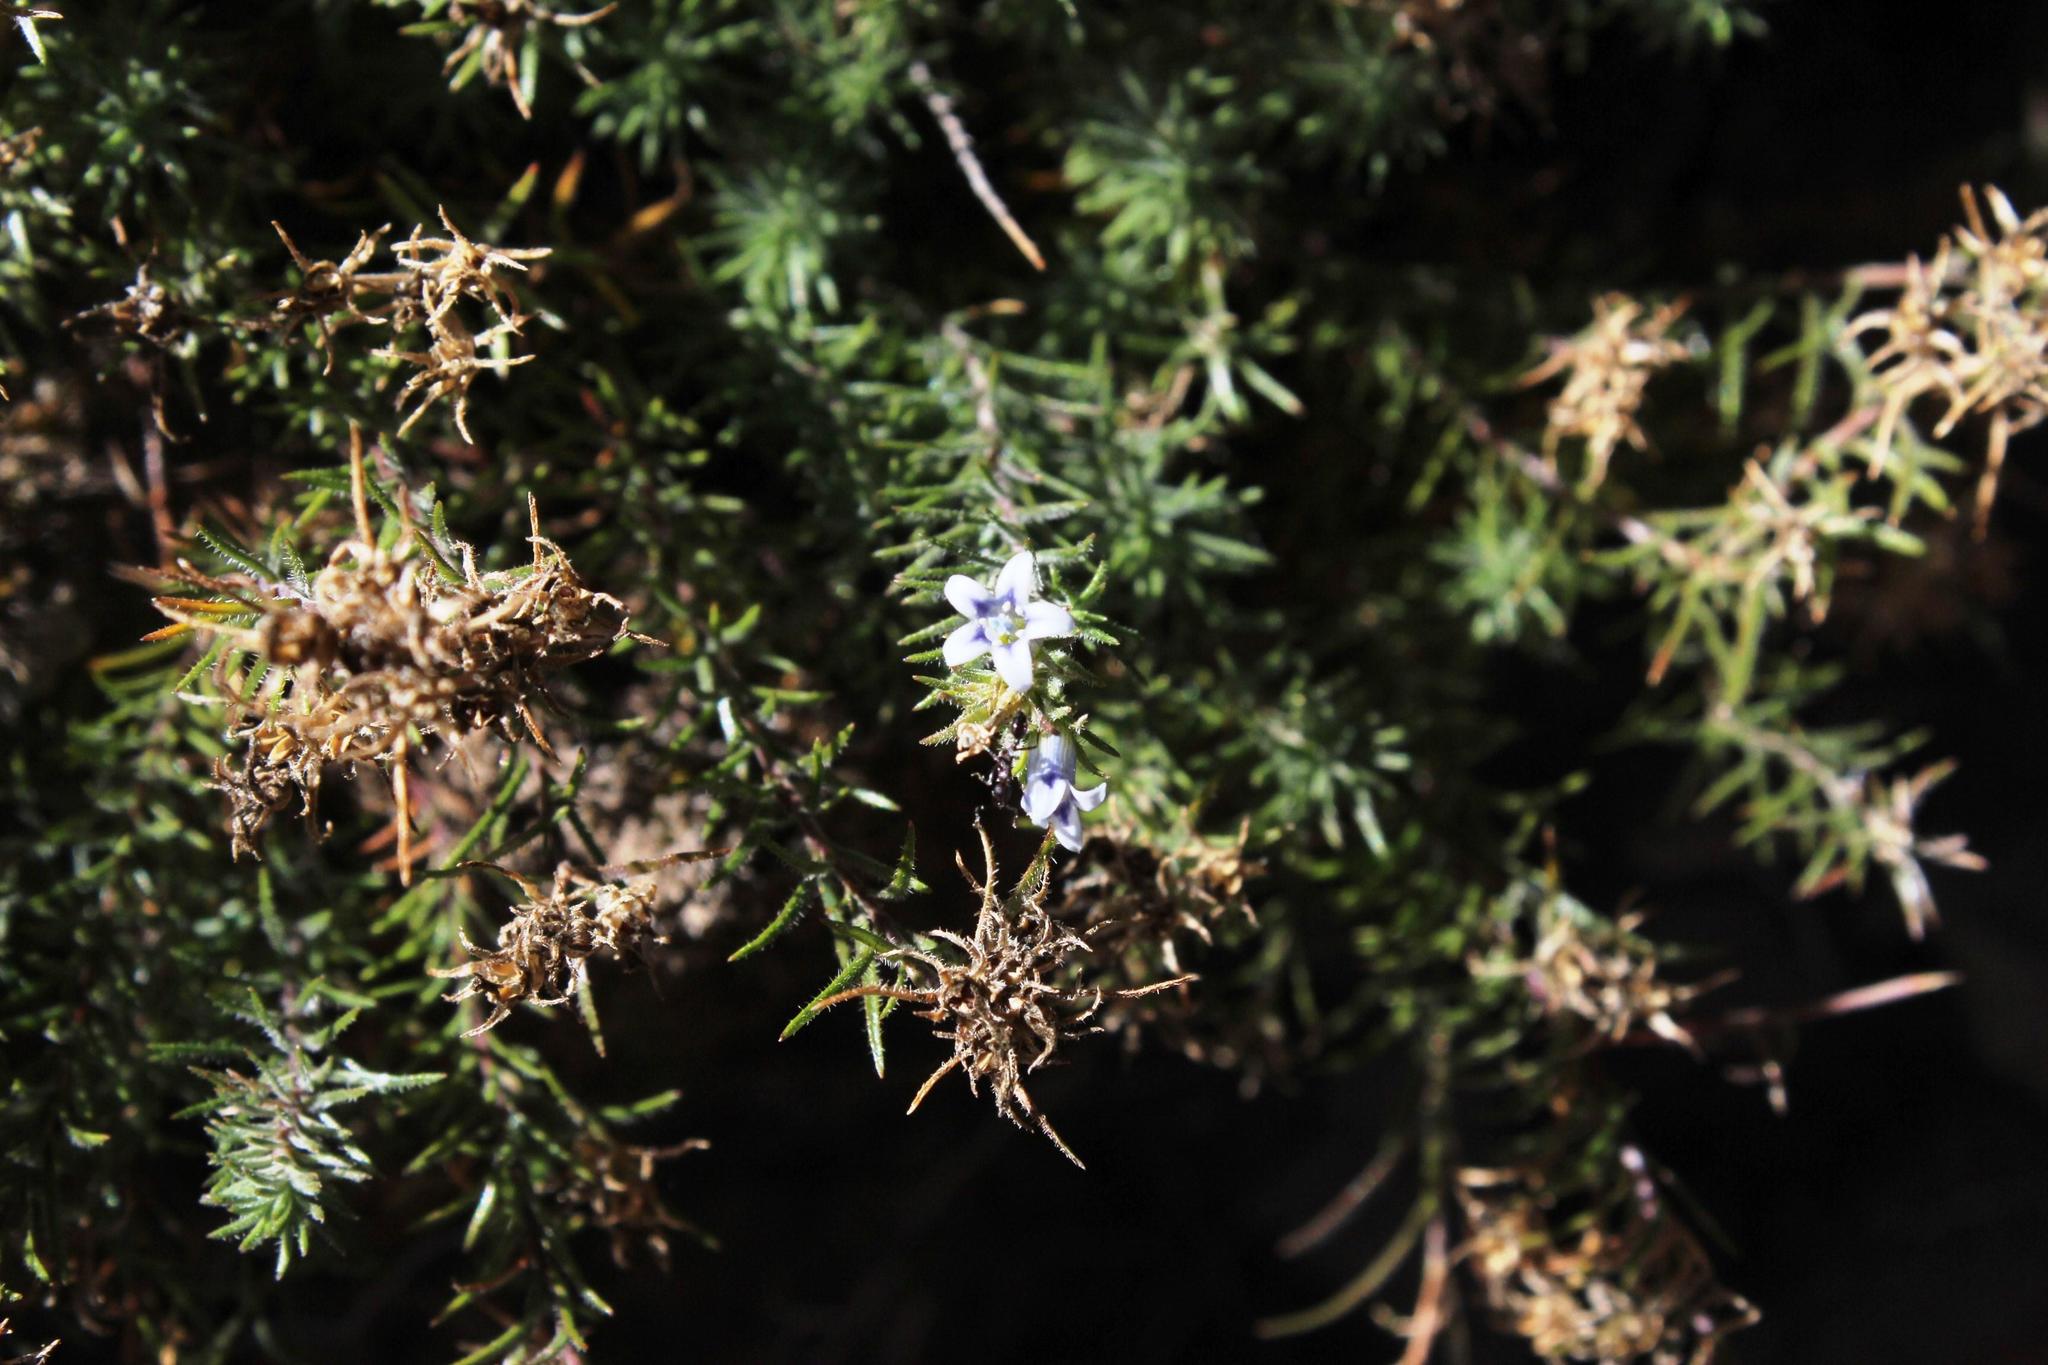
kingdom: Plantae
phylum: Tracheophyta
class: Magnoliopsida
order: Asterales
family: Campanulaceae
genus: Wahlenbergia
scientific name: Wahlenbergia lycopodioides
